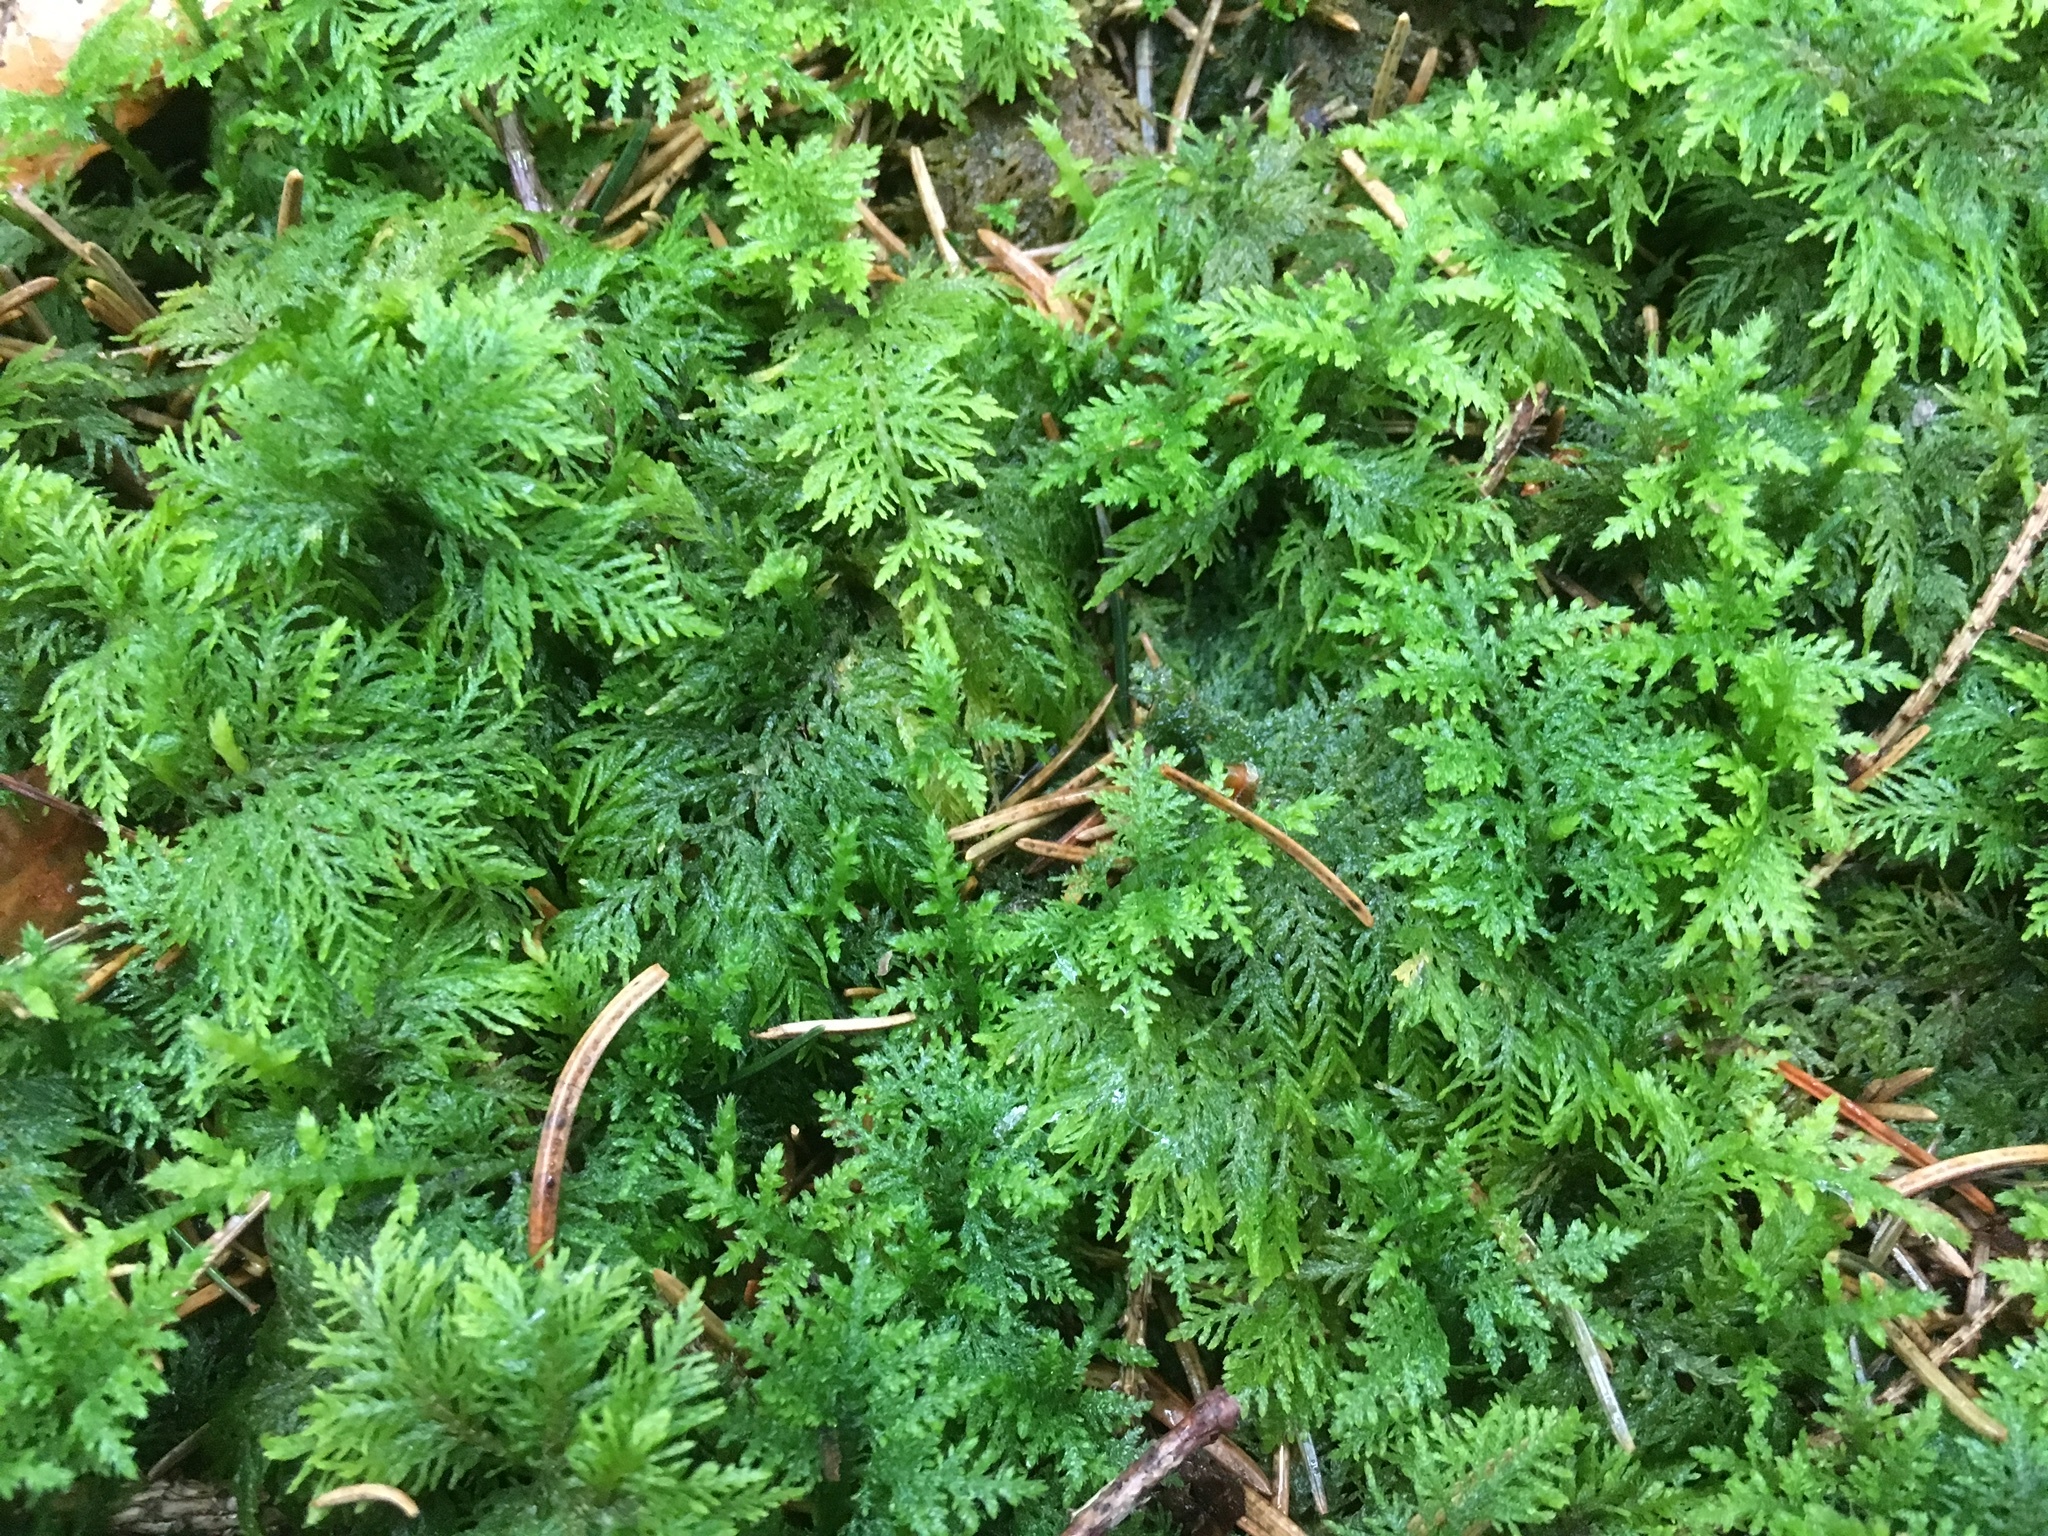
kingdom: Plantae
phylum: Bryophyta
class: Bryopsida
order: Hypnales
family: Thuidiaceae
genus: Thuidium
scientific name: Thuidium tamariscinum
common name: Common tamarisk-moss
